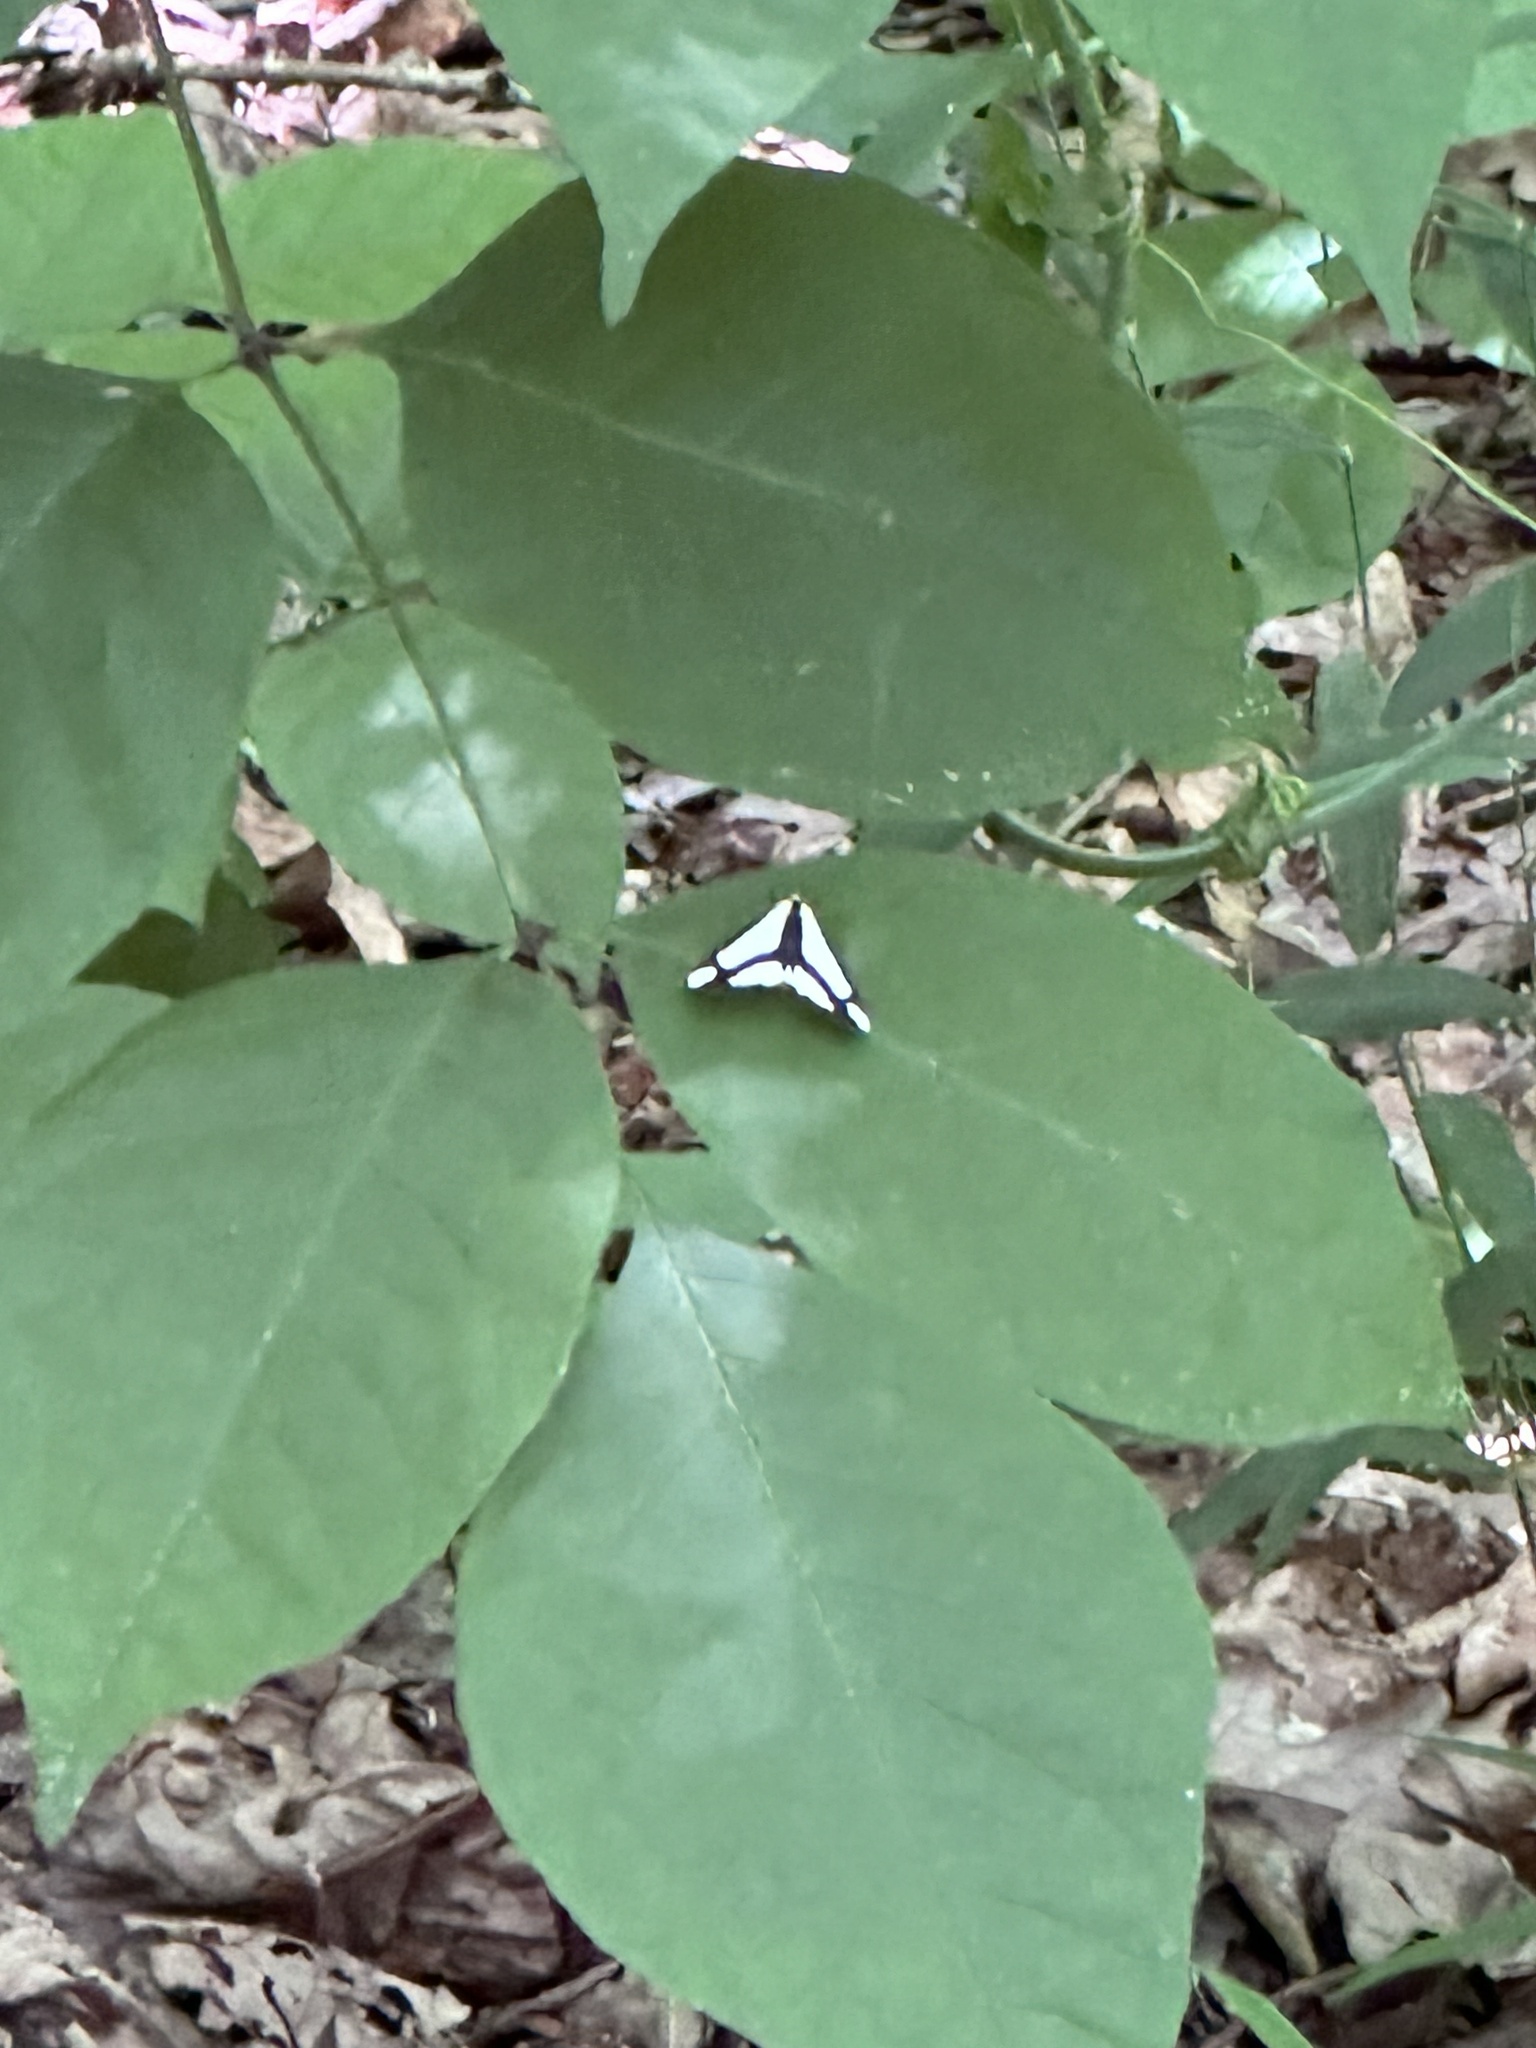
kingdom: Animalia
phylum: Arthropoda
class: Insecta
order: Lepidoptera
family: Erebidae
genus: Haploa
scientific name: Haploa lecontei
